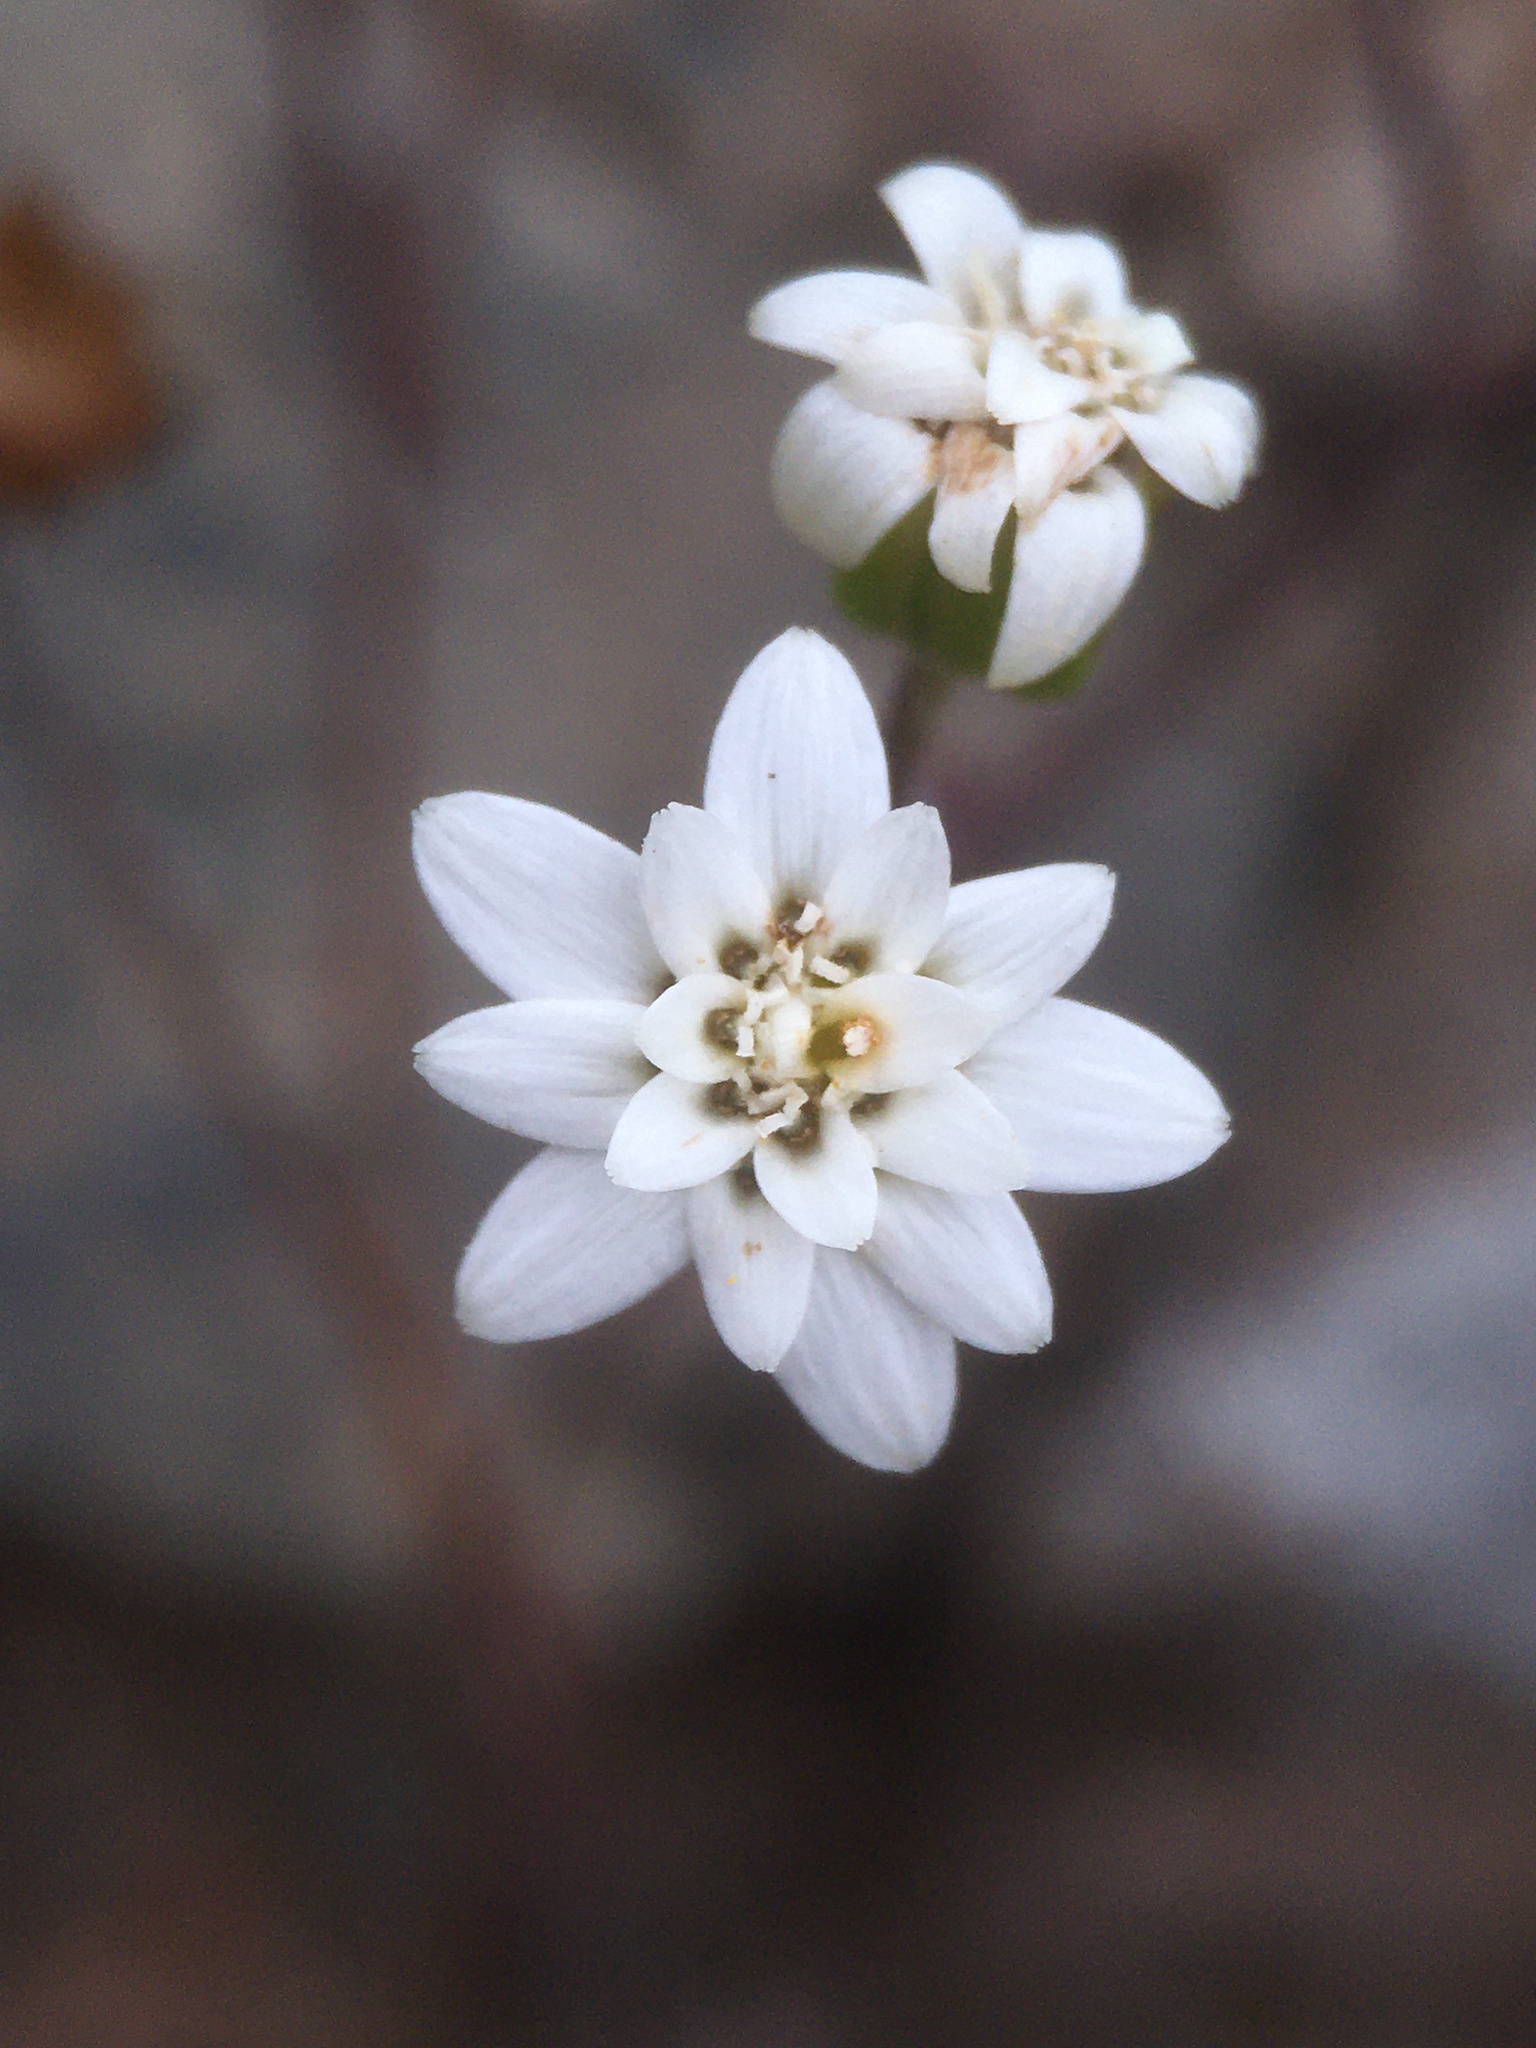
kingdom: Plantae
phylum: Tracheophyta
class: Magnoliopsida
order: Asterales
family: Asteraceae
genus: Leucheria
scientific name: Leucheria cumingii
